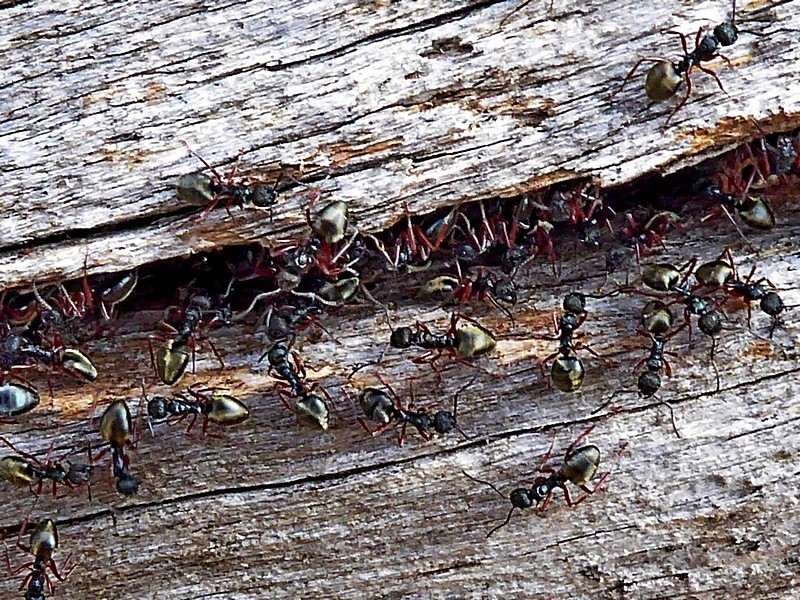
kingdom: Animalia
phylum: Arthropoda
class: Insecta
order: Hymenoptera
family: Formicidae
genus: Dolichoderus
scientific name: Dolichoderus doriae
